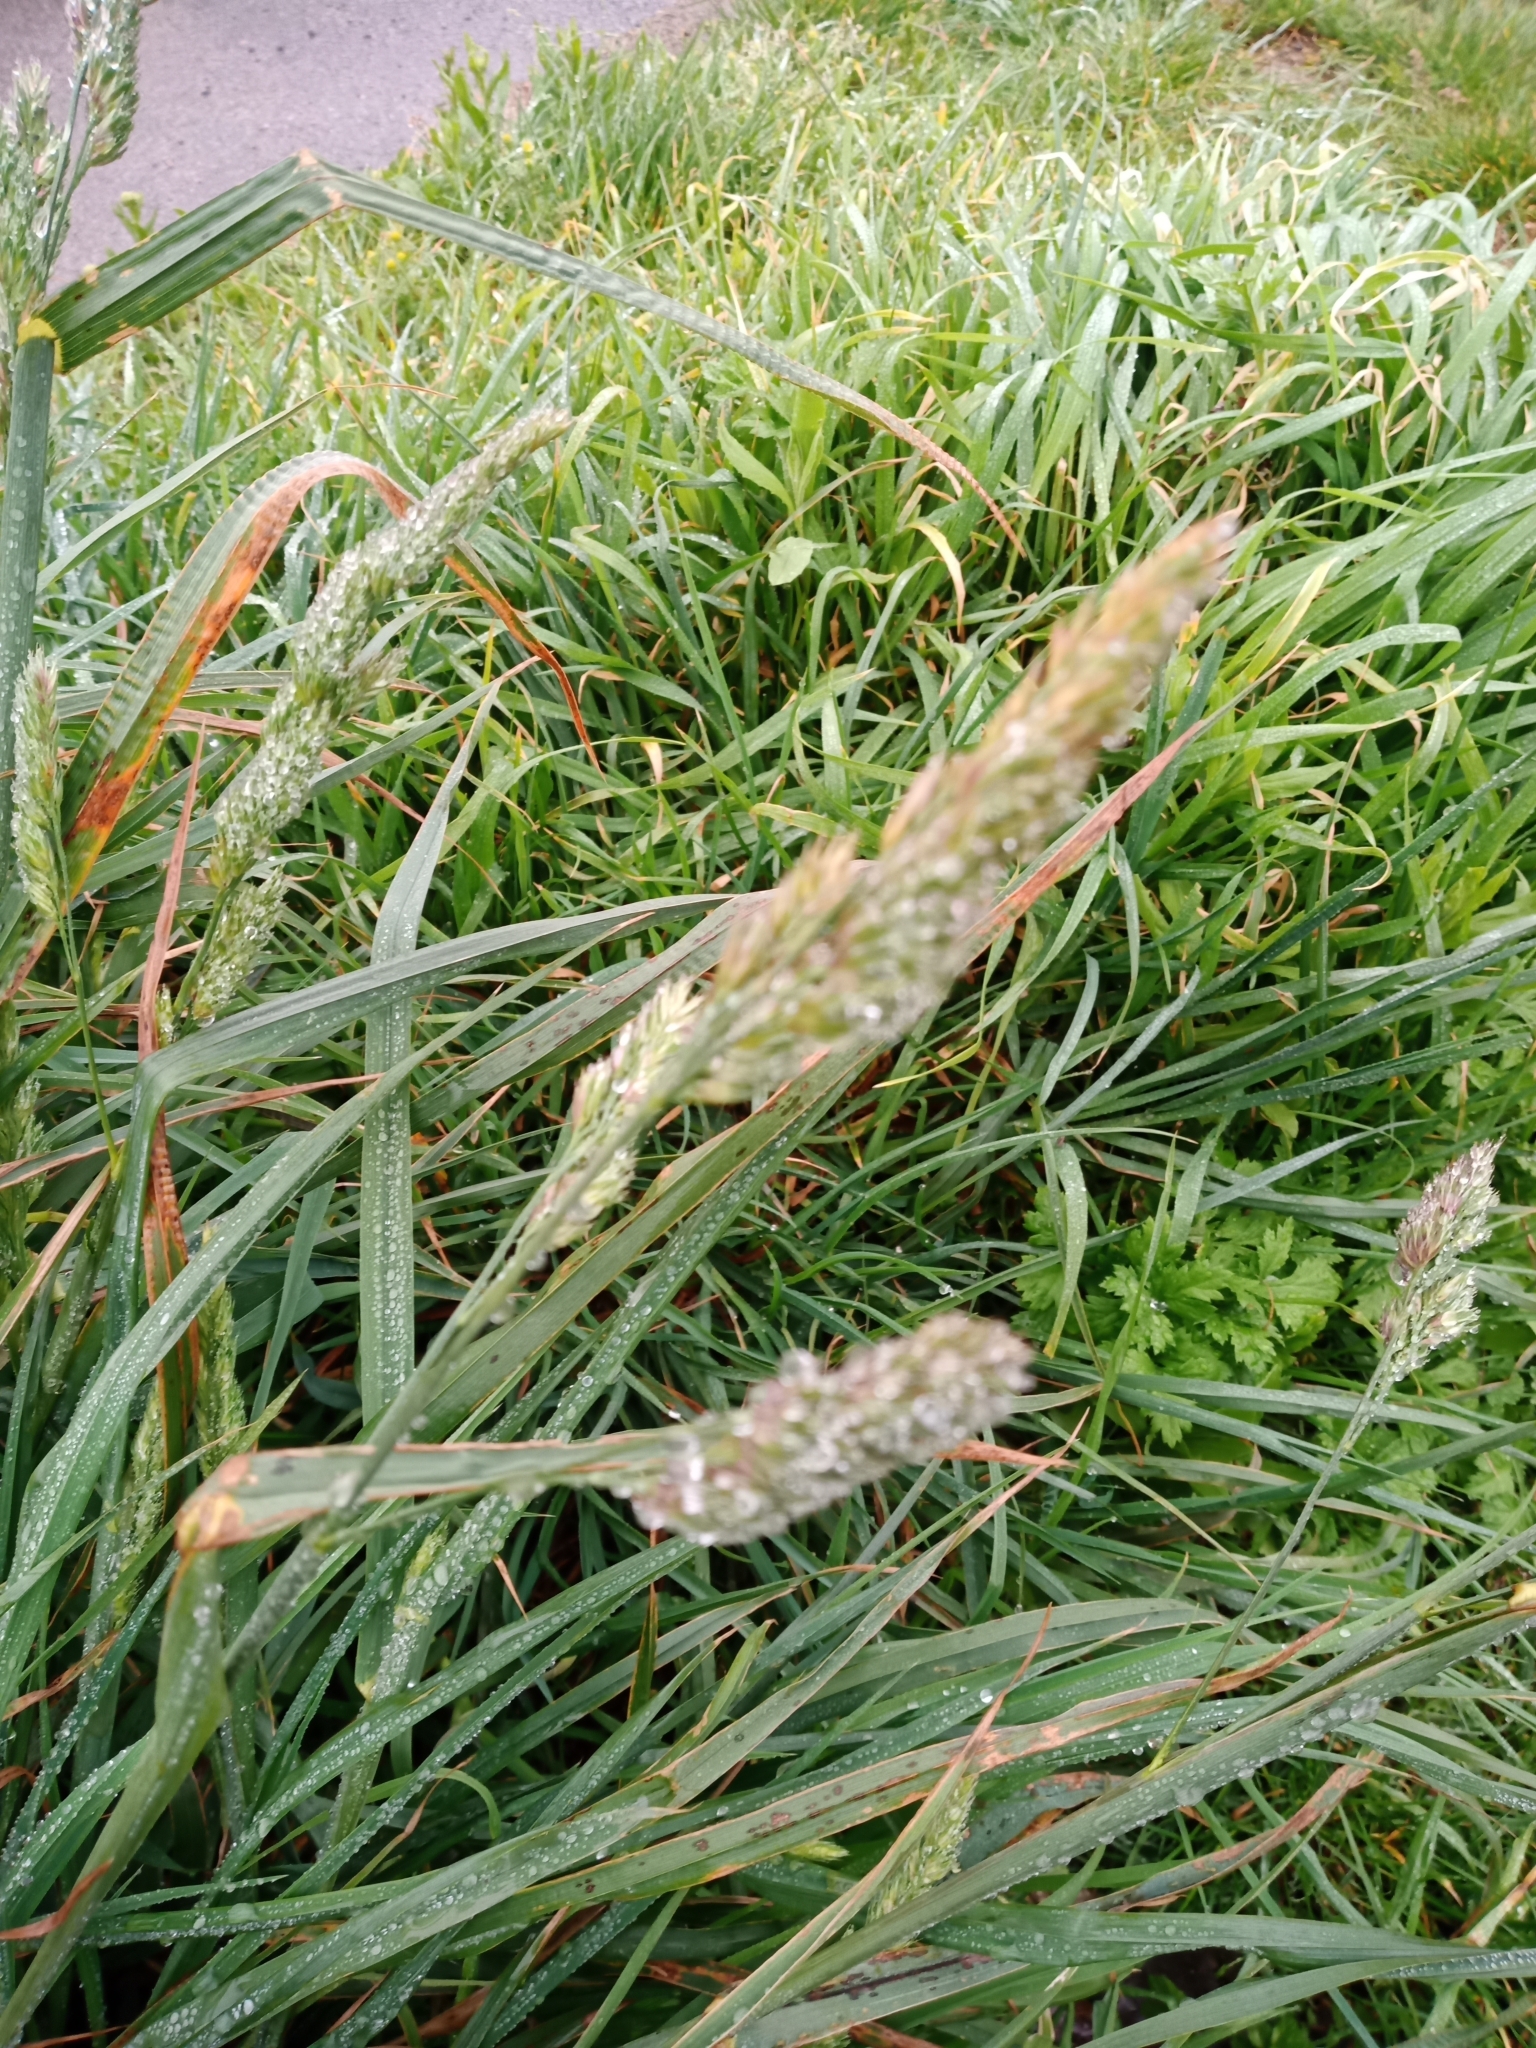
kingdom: Plantae
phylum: Tracheophyta
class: Liliopsida
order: Poales
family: Poaceae
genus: Dactylis
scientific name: Dactylis glomerata
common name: Orchardgrass
